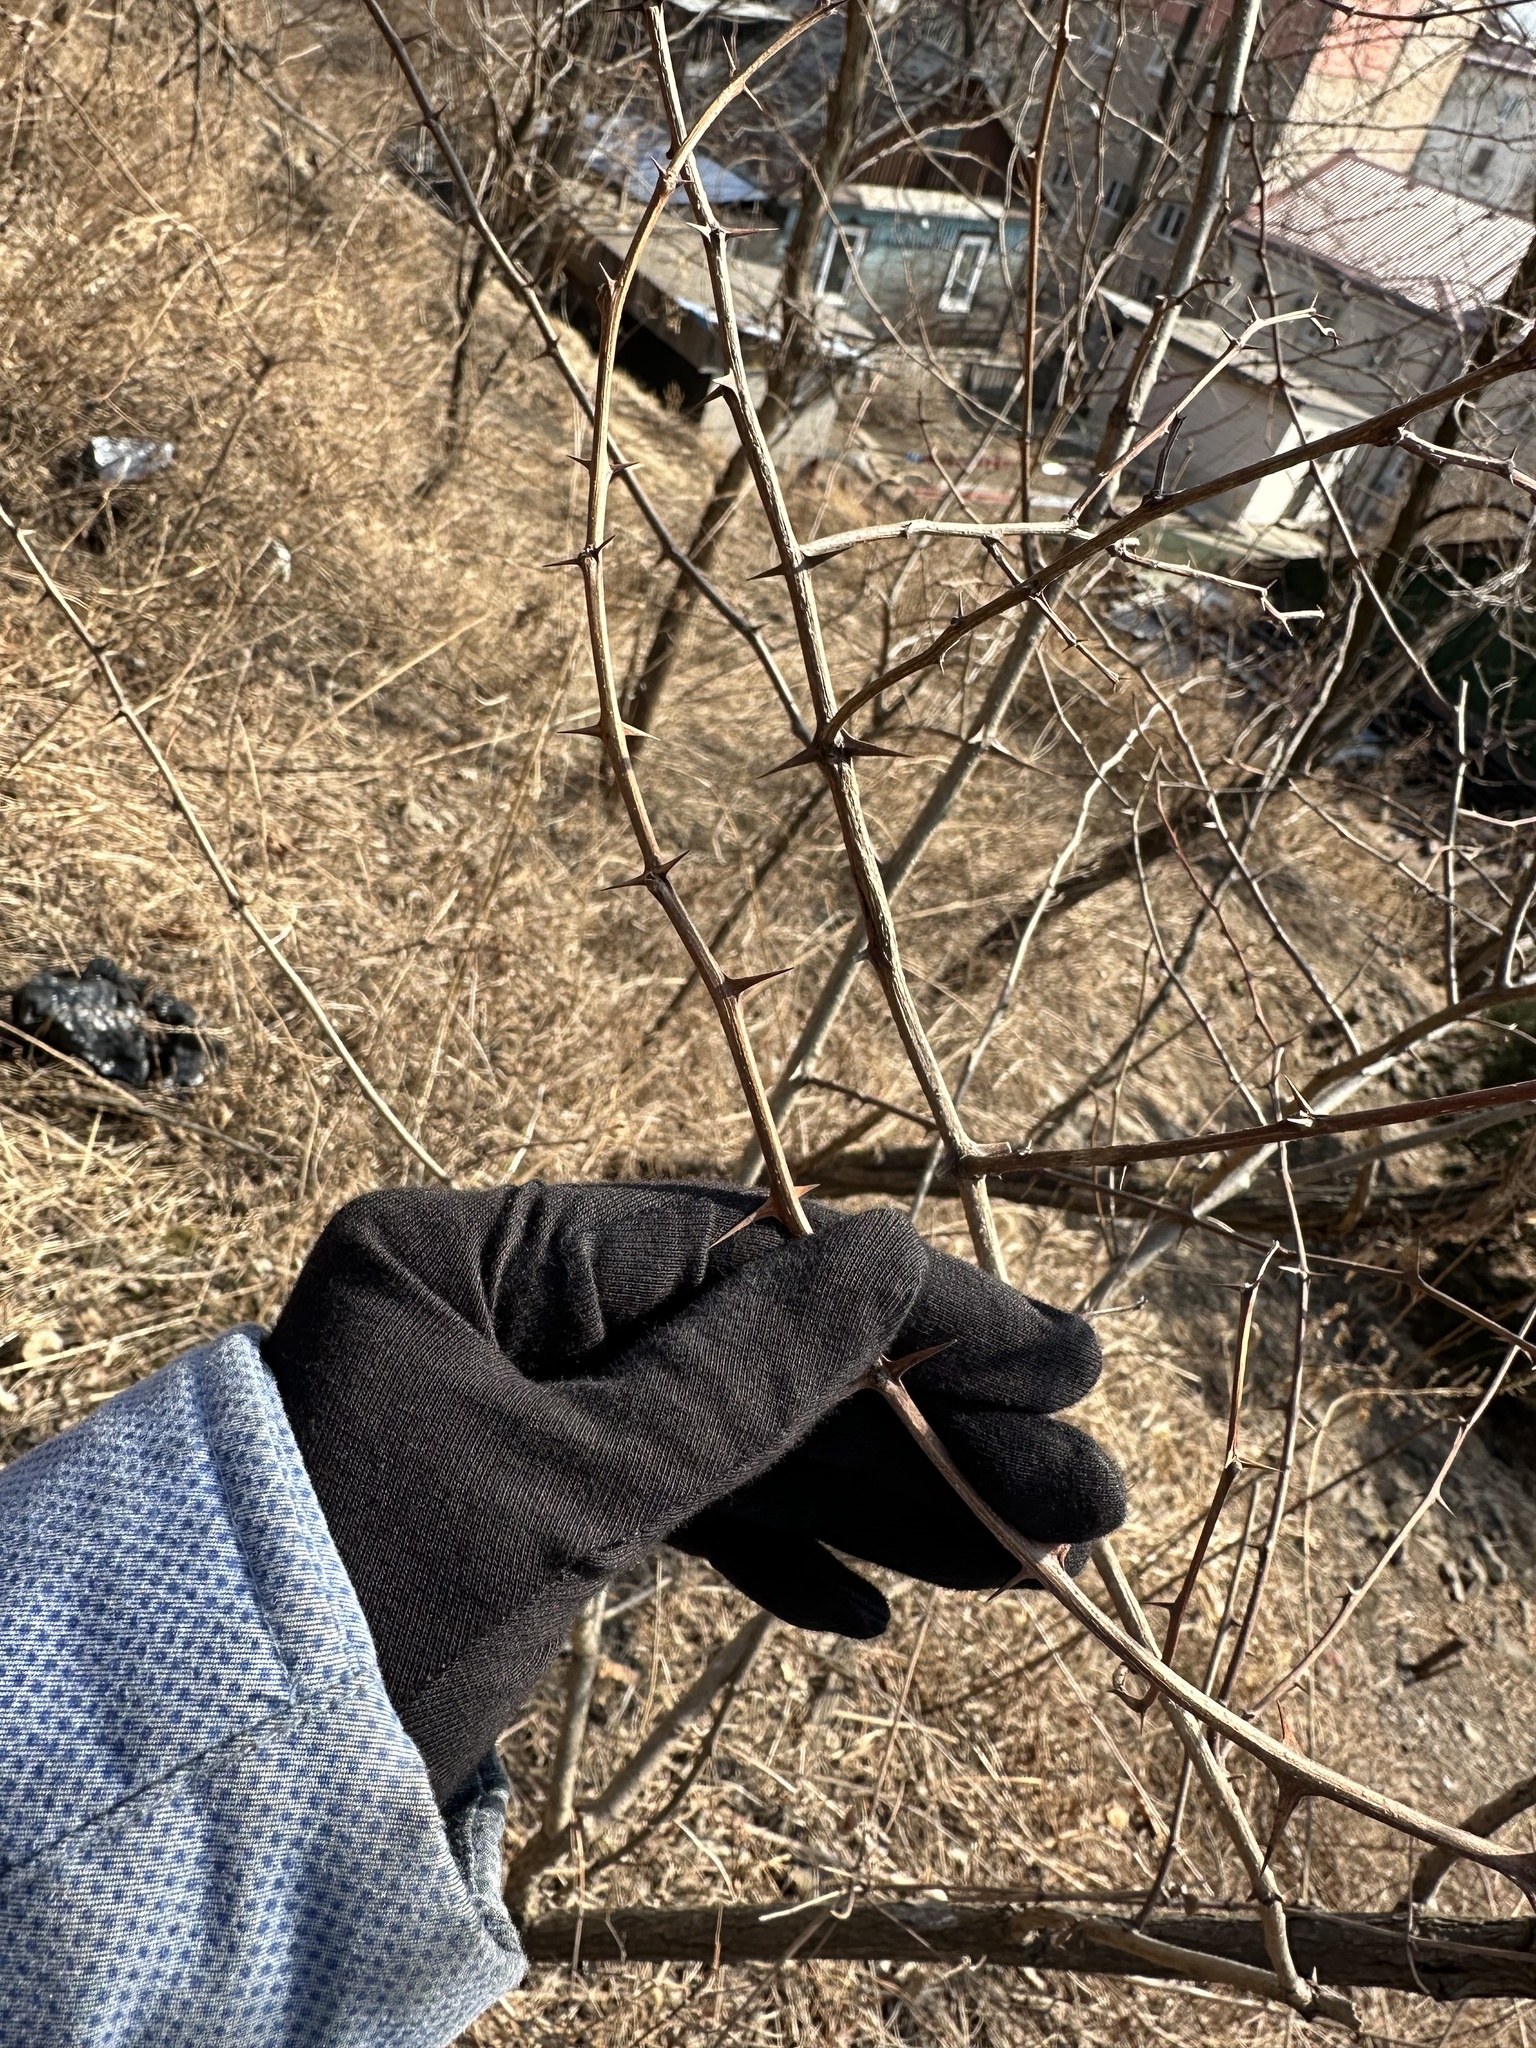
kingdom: Plantae
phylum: Tracheophyta
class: Magnoliopsida
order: Fabales
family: Fabaceae
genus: Robinia
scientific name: Robinia pseudoacacia
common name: Black locust
